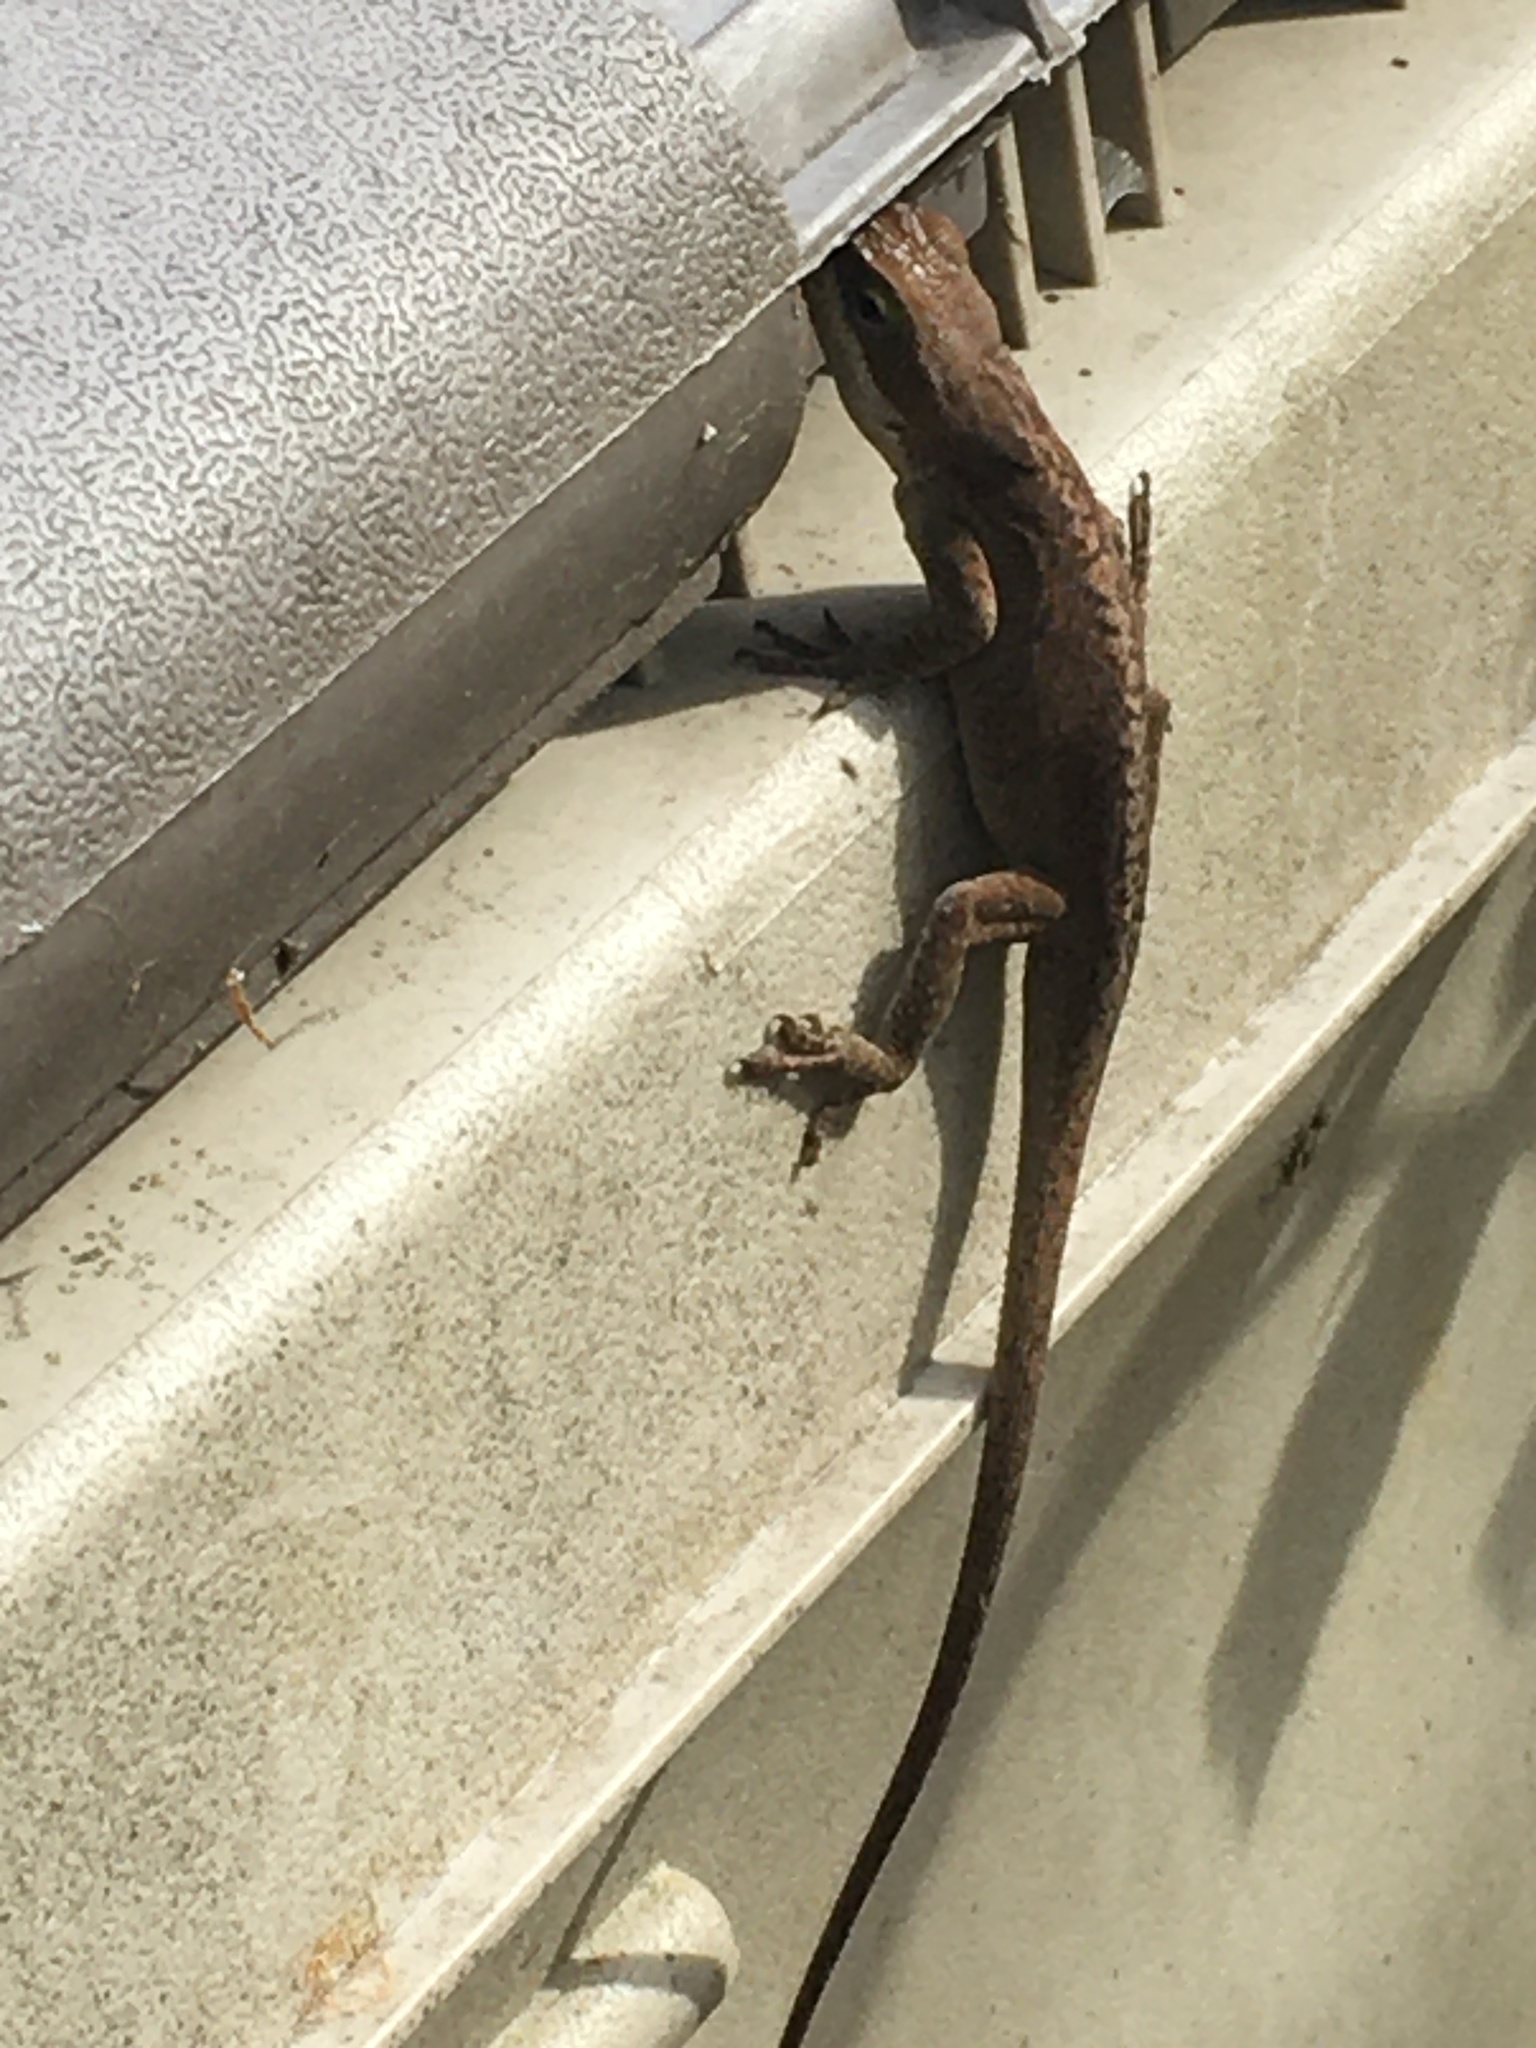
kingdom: Animalia
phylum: Chordata
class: Squamata
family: Dactyloidae
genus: Anolis
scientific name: Anolis carolinensis
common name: Green anole
